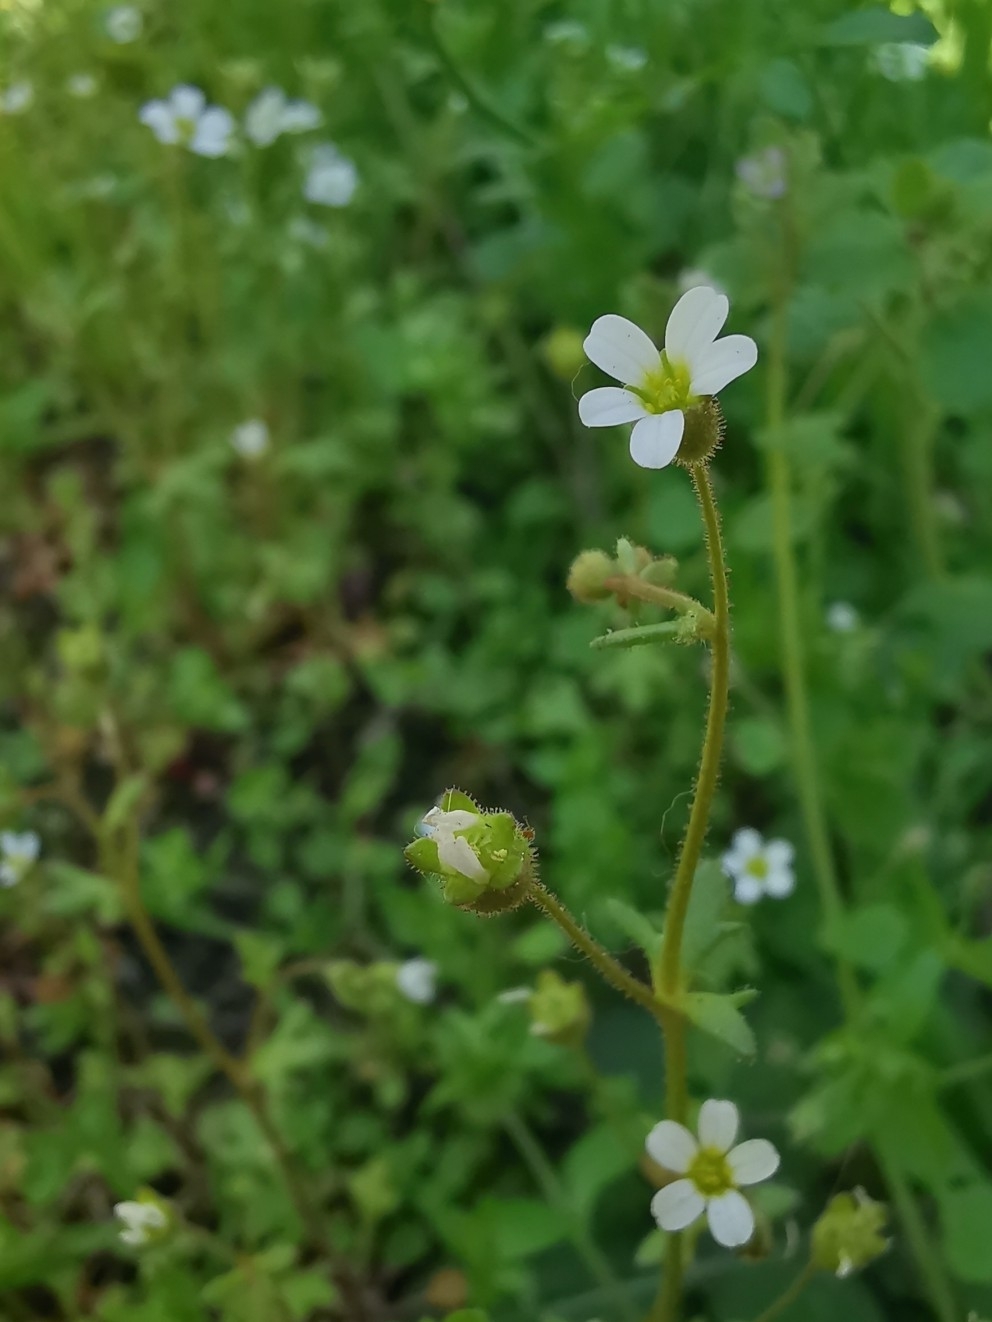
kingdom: Plantae
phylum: Tracheophyta
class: Magnoliopsida
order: Saxifragales
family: Saxifragaceae
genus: Saxifraga
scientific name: Saxifraga tridactylites
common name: Rue-leaved saxifrage
